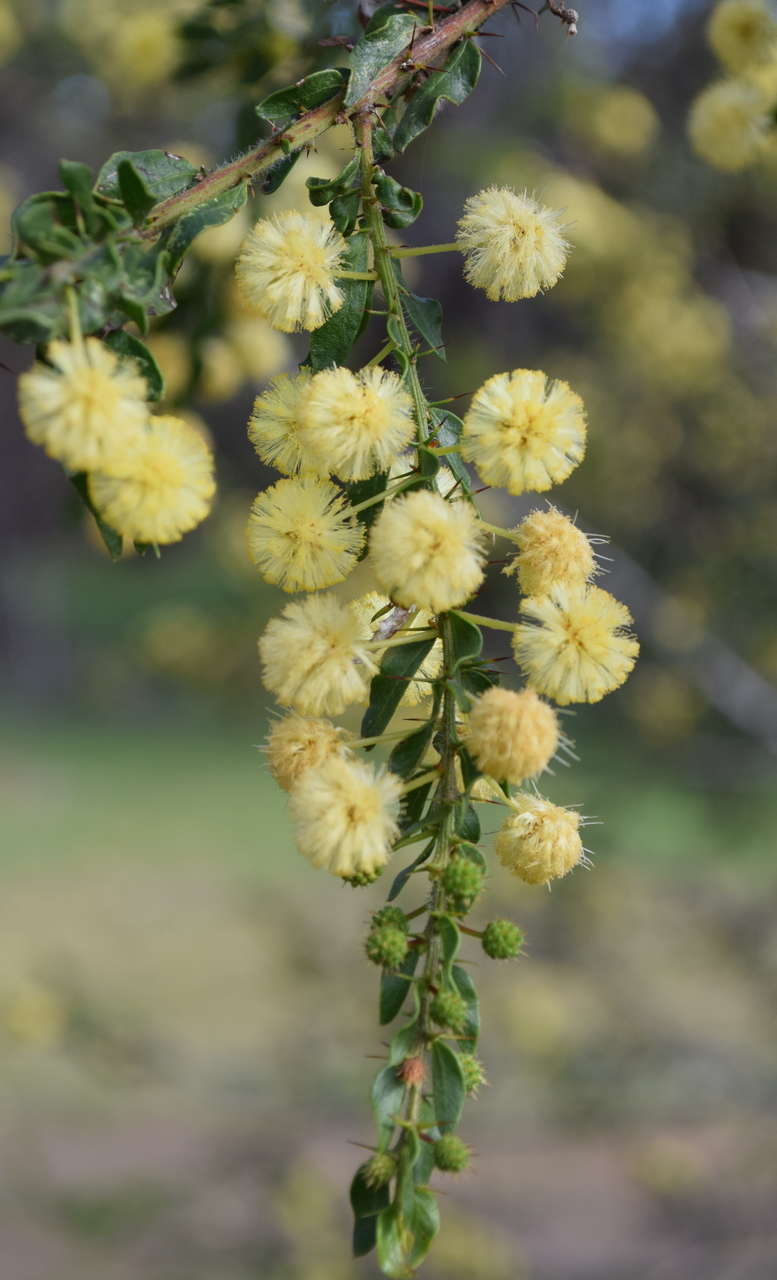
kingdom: Plantae
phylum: Tracheophyta
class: Magnoliopsida
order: Fabales
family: Fabaceae
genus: Acacia
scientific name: Acacia paradoxa
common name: Paradox acacia
